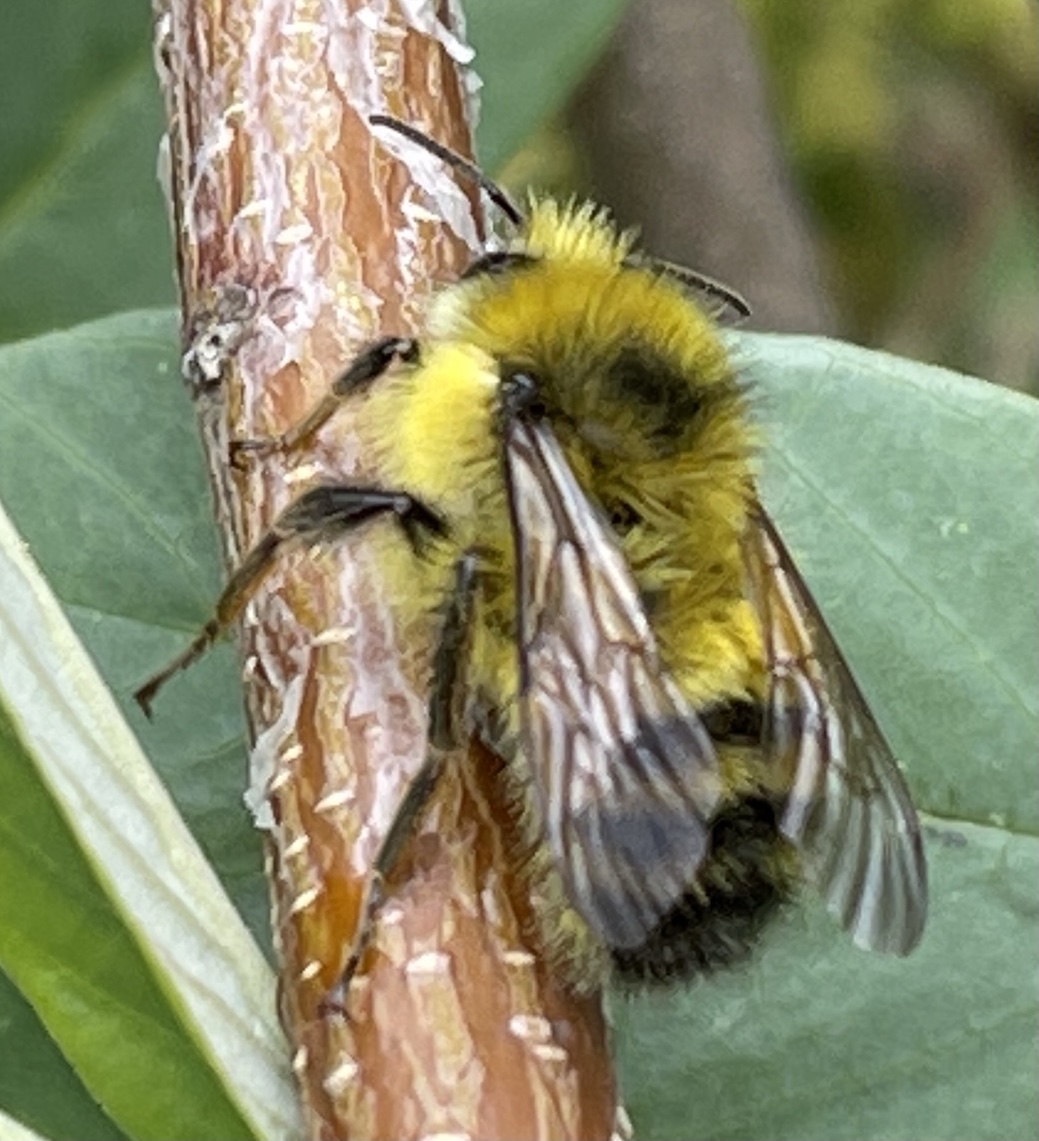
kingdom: Animalia
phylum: Arthropoda
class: Insecta
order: Hymenoptera
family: Apidae
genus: Bombus
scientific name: Bombus flavifrons
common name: Yellow head bumble bee
